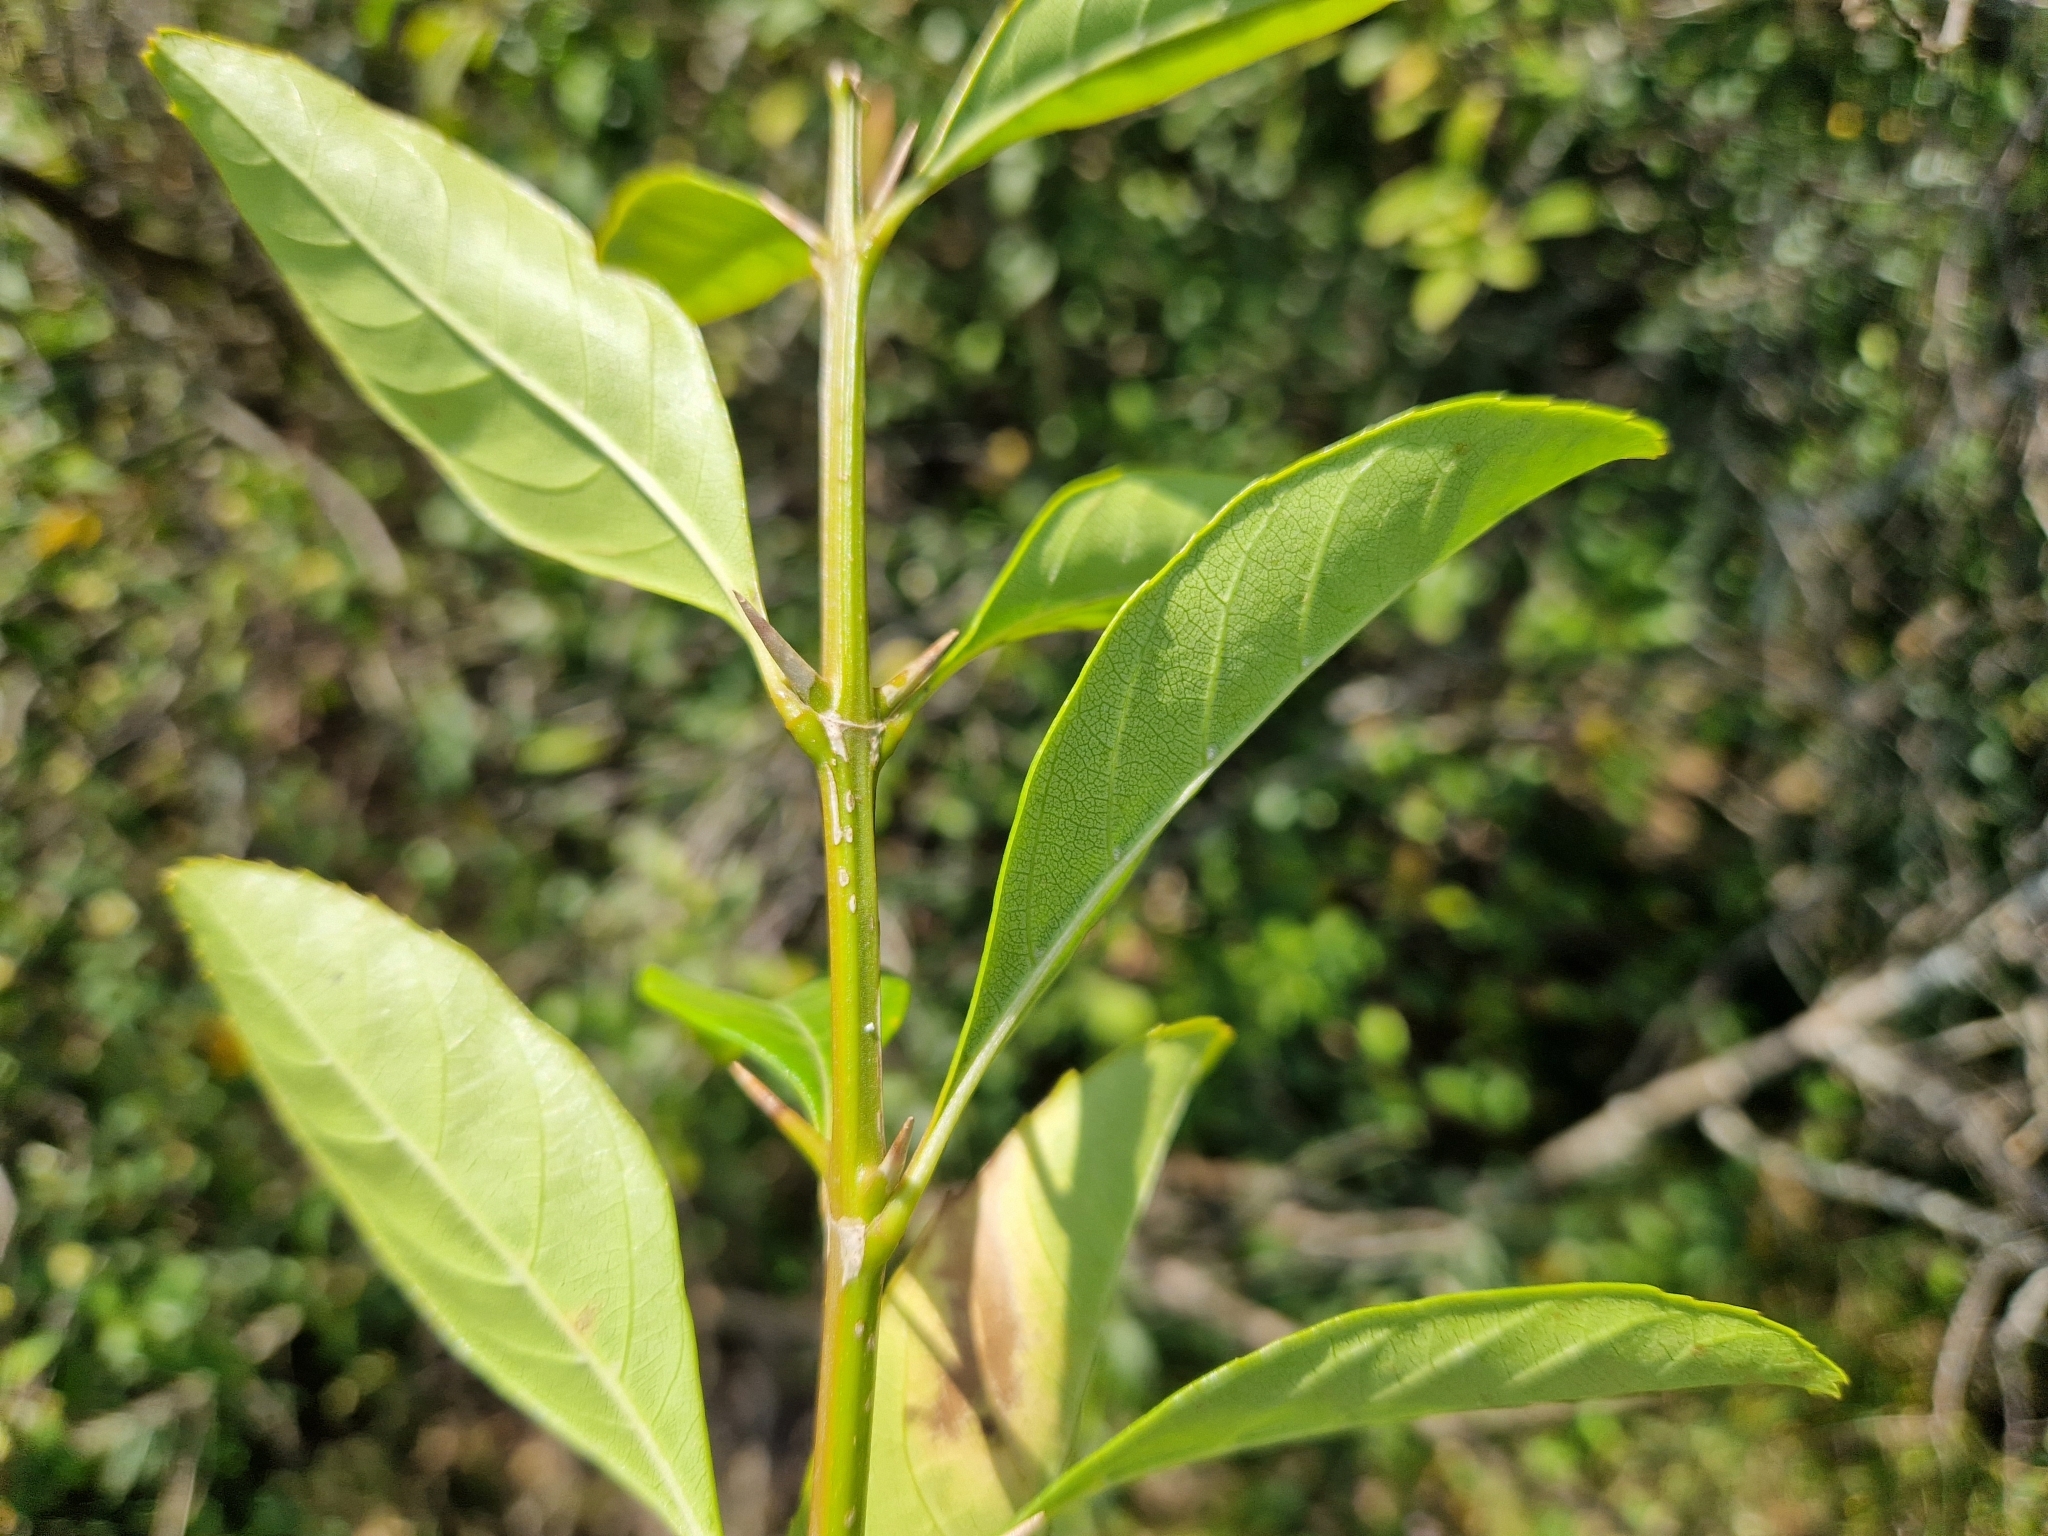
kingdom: Plantae
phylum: Tracheophyta
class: Magnoliopsida
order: Lamiales
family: Verbenaceae
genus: Citharexylum
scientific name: Citharexylum montevidense
